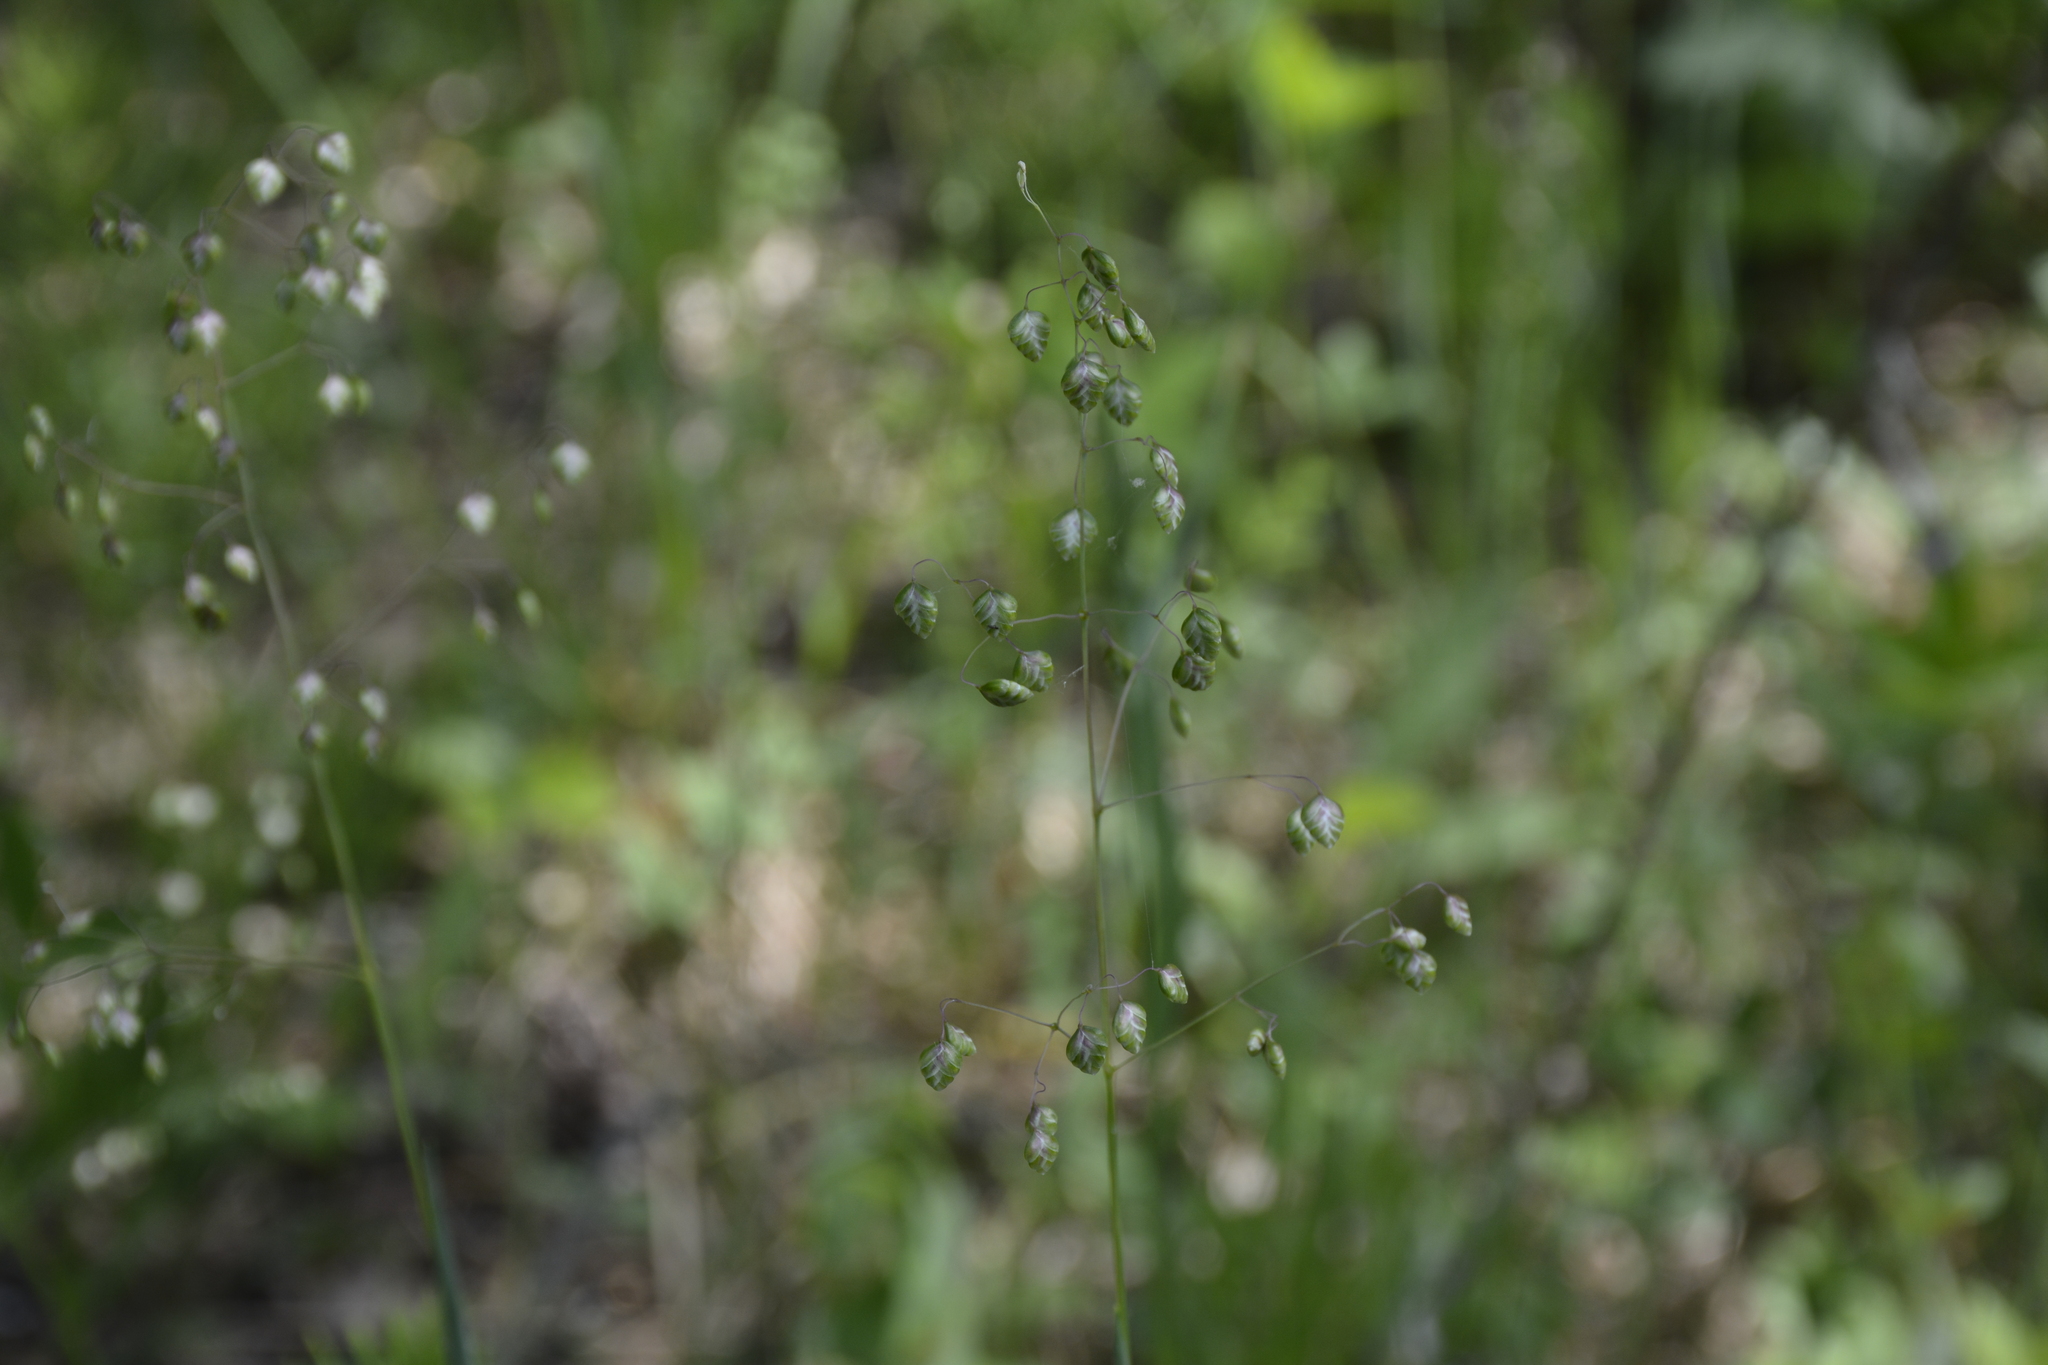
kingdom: Plantae
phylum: Tracheophyta
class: Liliopsida
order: Poales
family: Poaceae
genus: Briza
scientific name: Briza media
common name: Quaking grass
